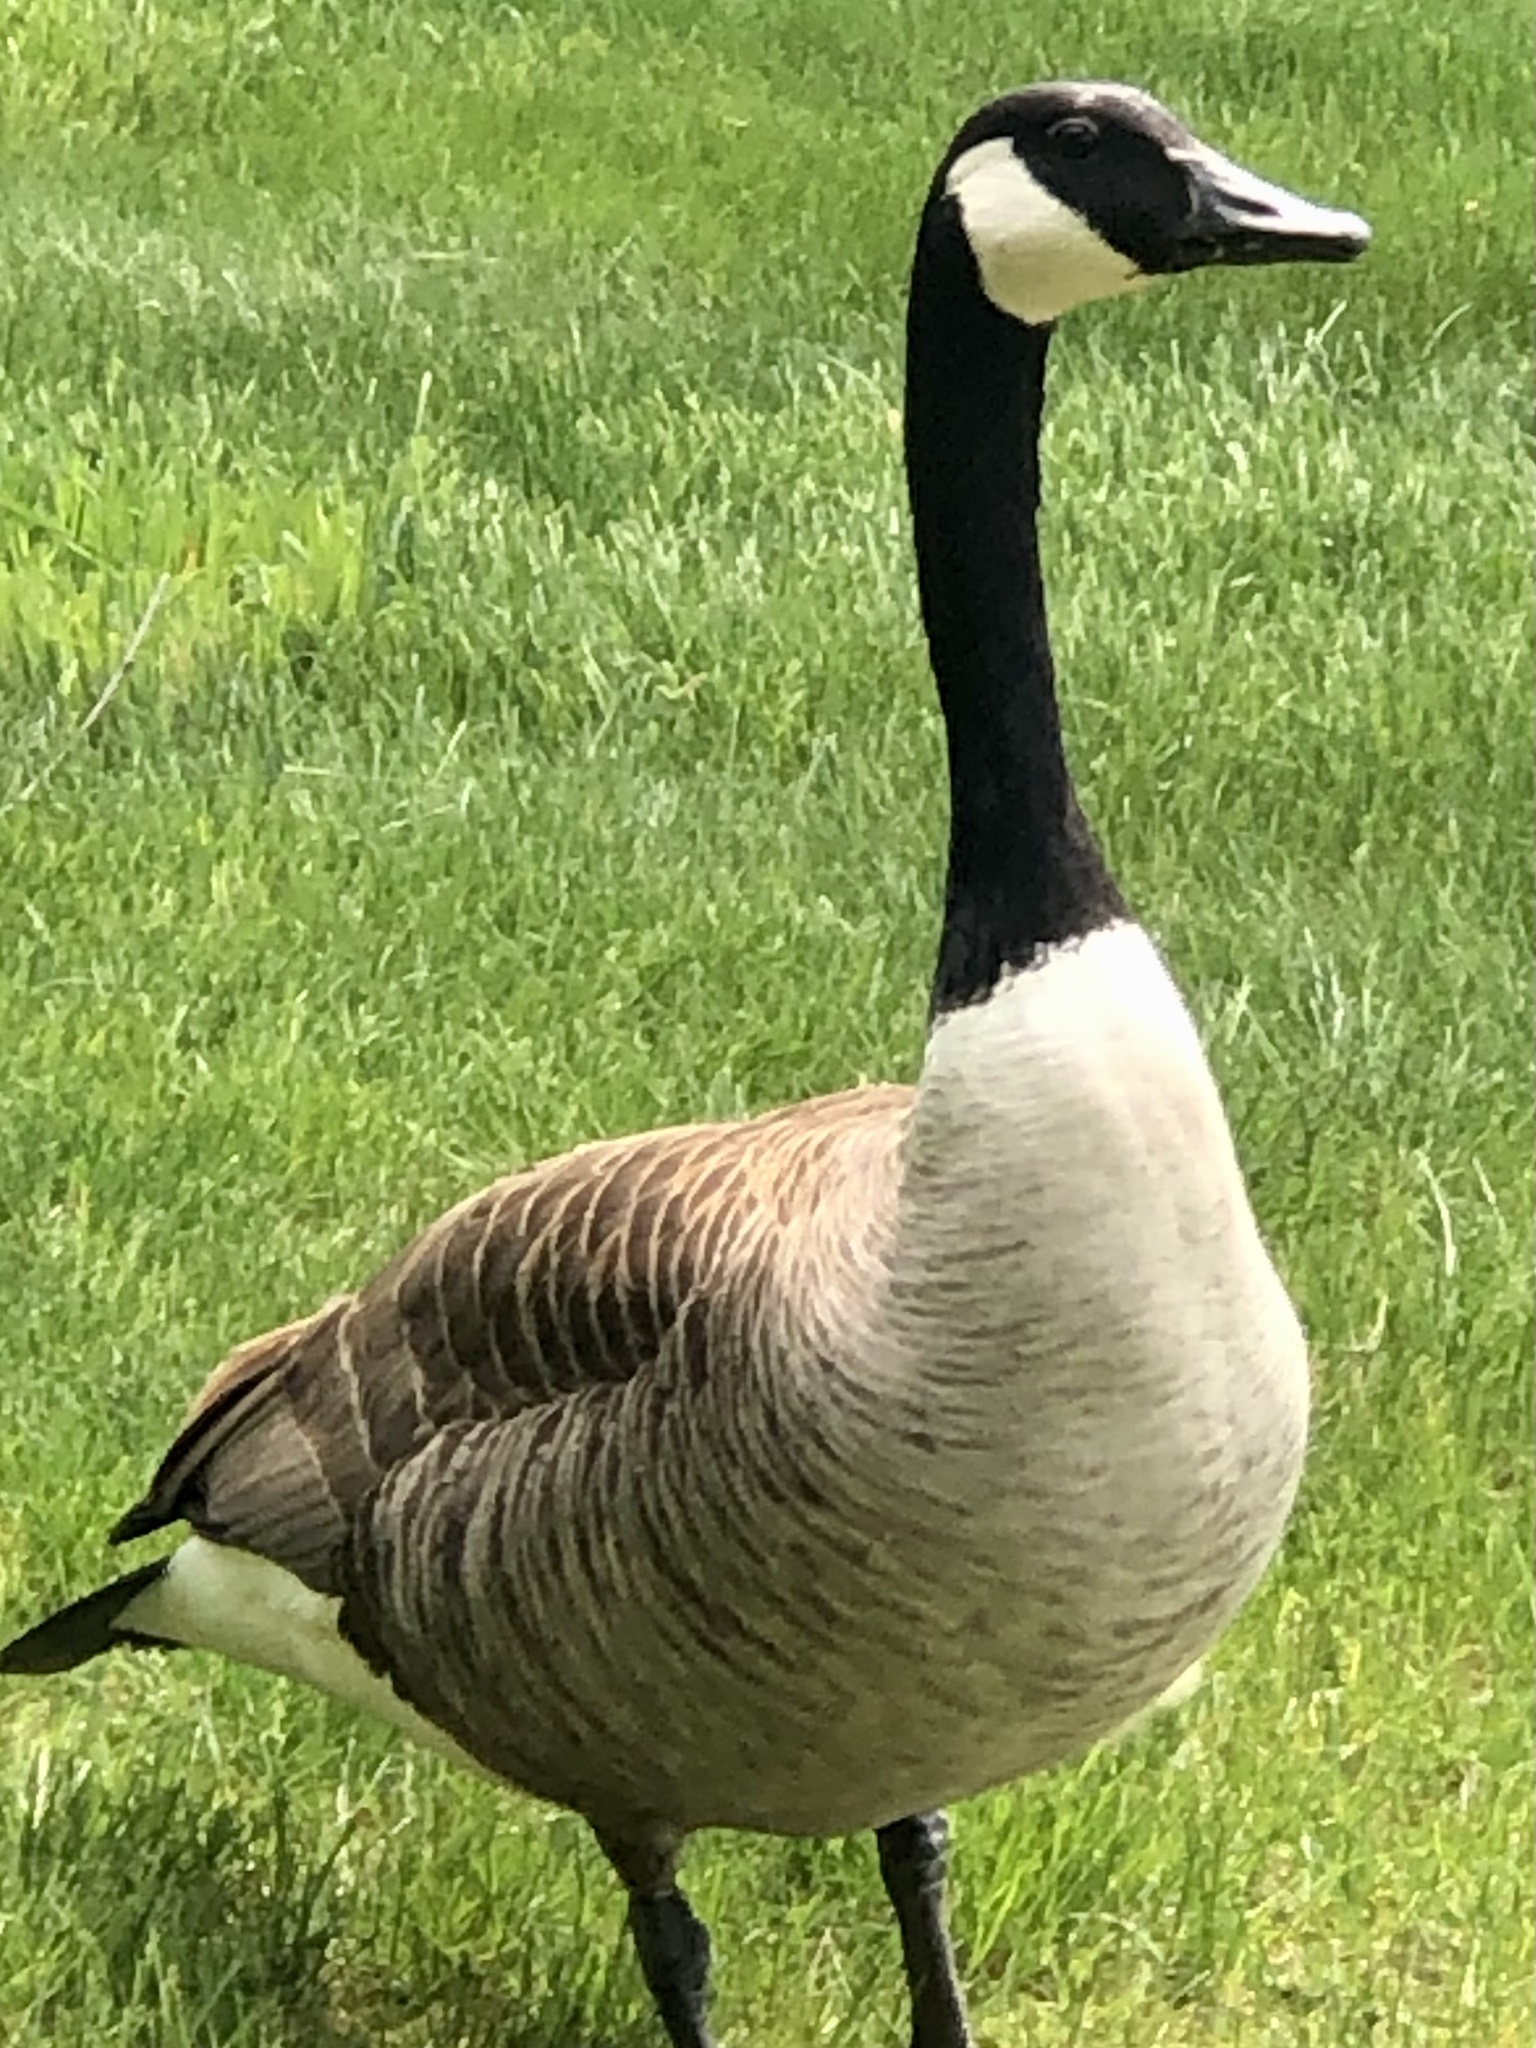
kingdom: Animalia
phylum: Chordata
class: Aves
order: Anseriformes
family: Anatidae
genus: Branta
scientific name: Branta canadensis
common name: Canada goose
